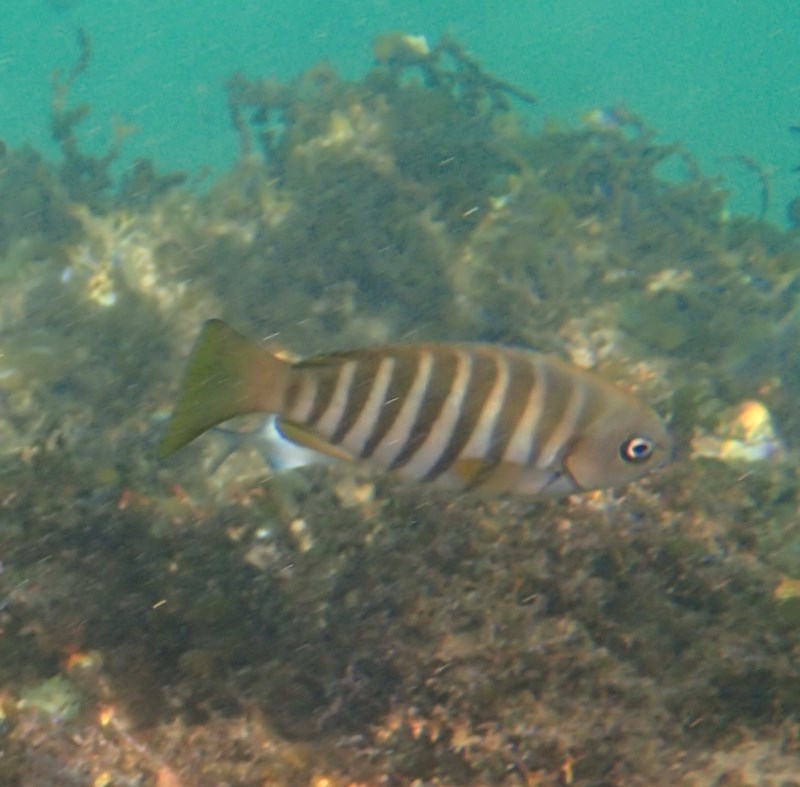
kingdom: Animalia
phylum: Chordata
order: Perciformes
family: Kyphosidae
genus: Girella
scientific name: Girella zebra
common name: Stripey bream
